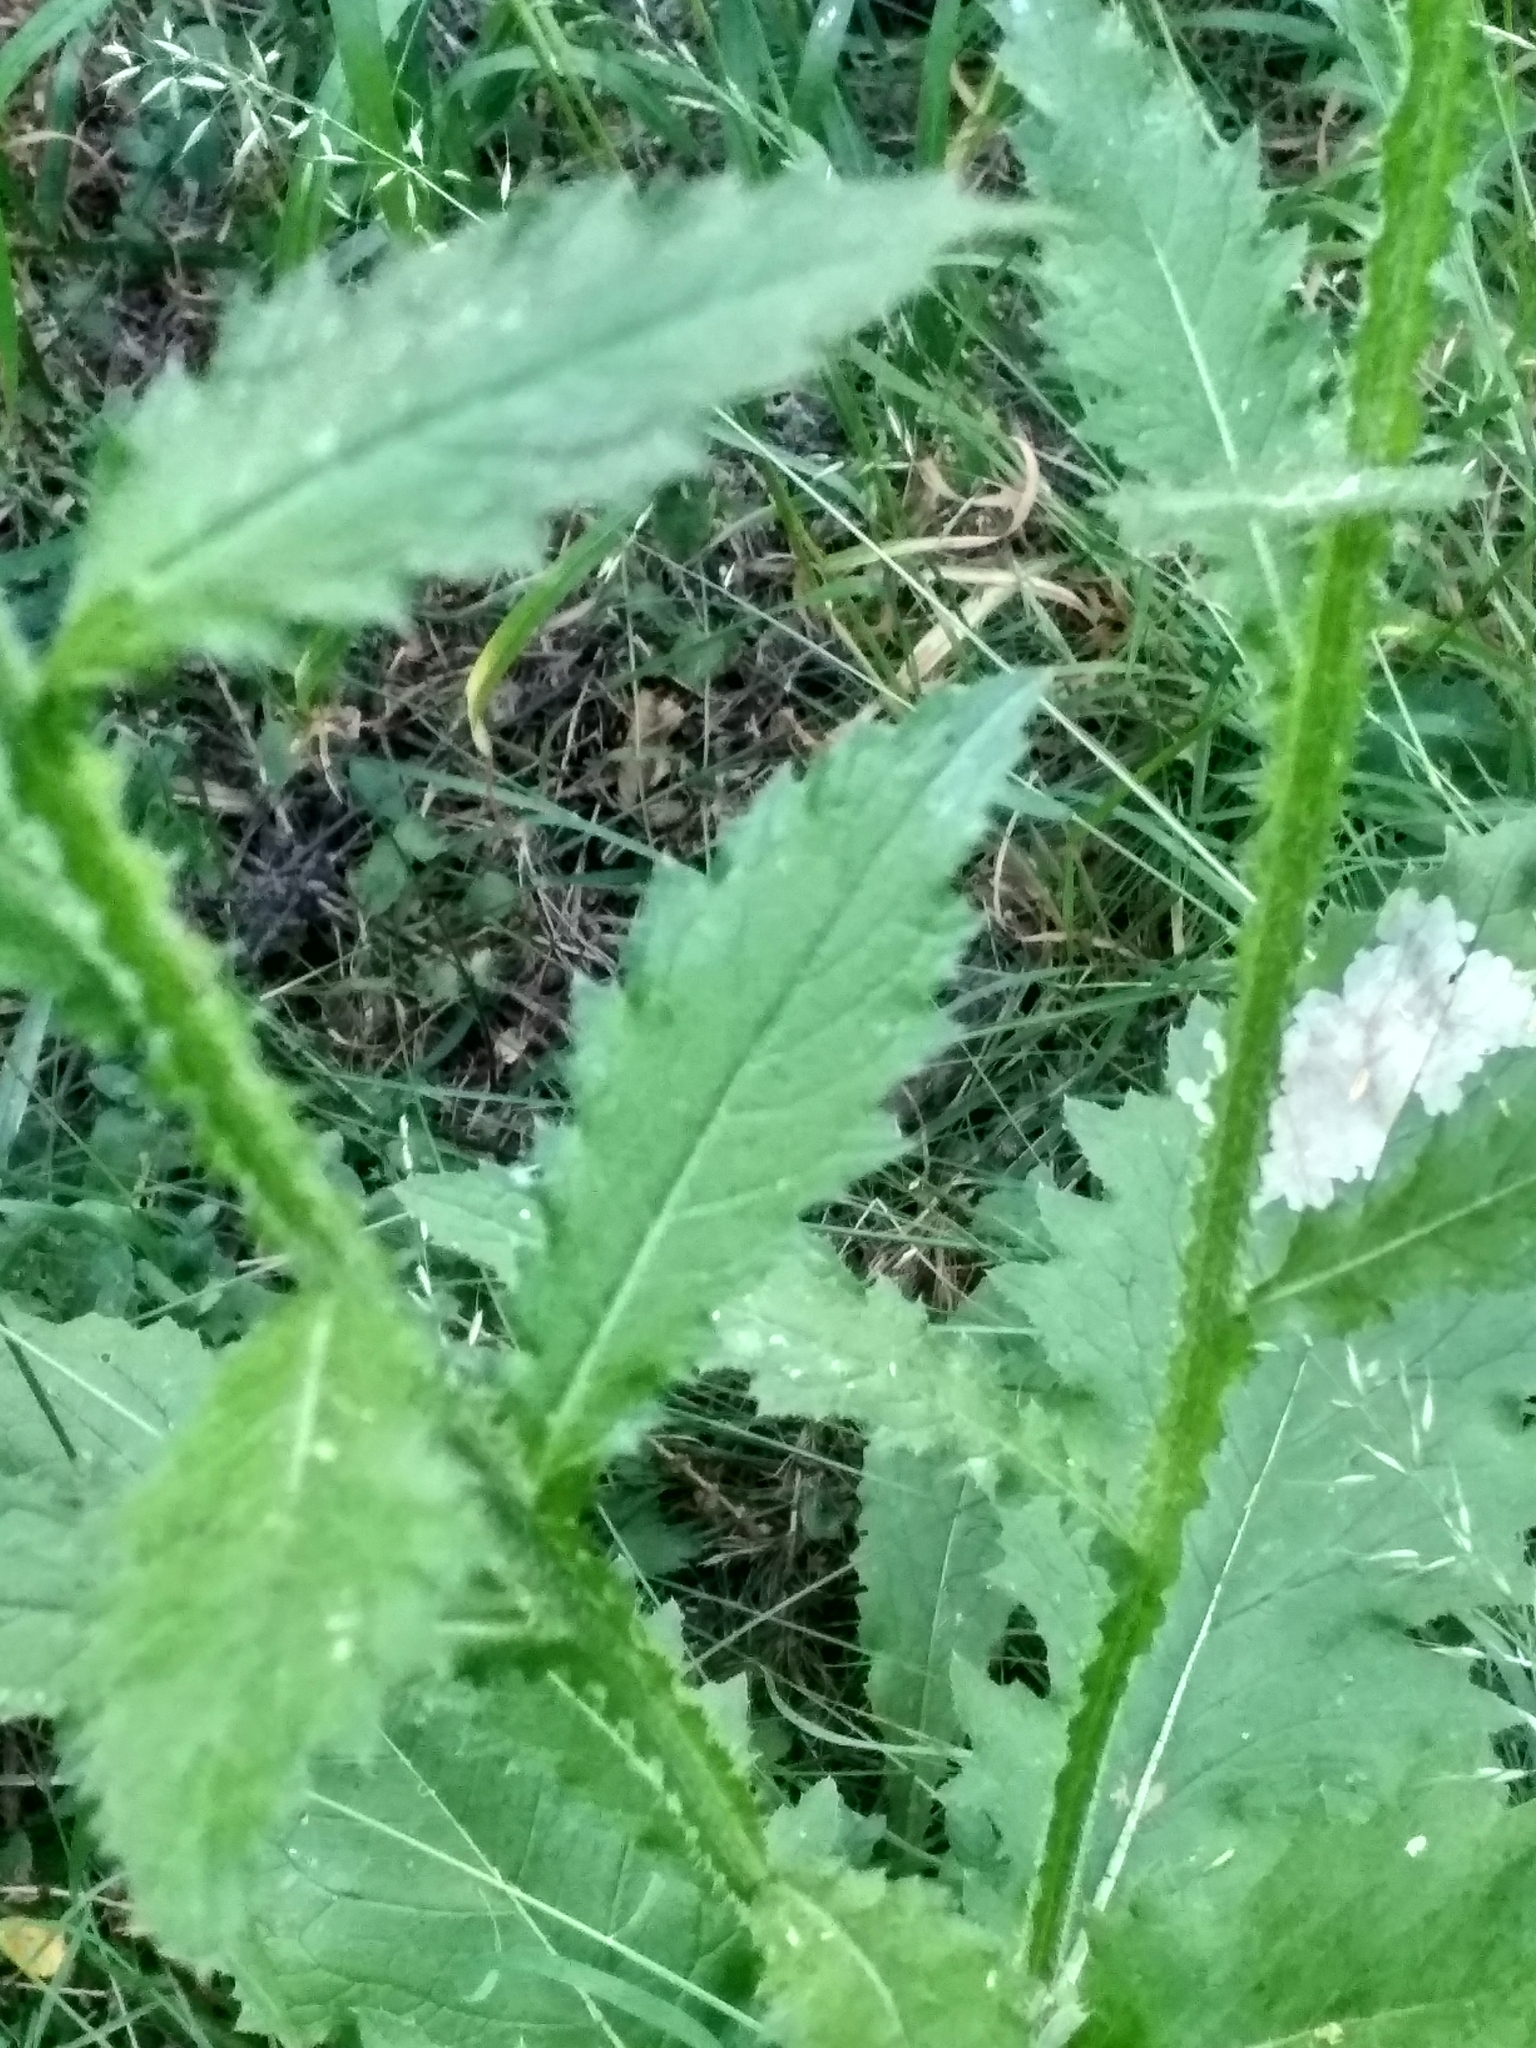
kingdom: Plantae
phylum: Tracheophyta
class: Magnoliopsida
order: Asterales
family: Asteraceae
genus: Carduus
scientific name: Carduus crispus
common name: Welted thistle
